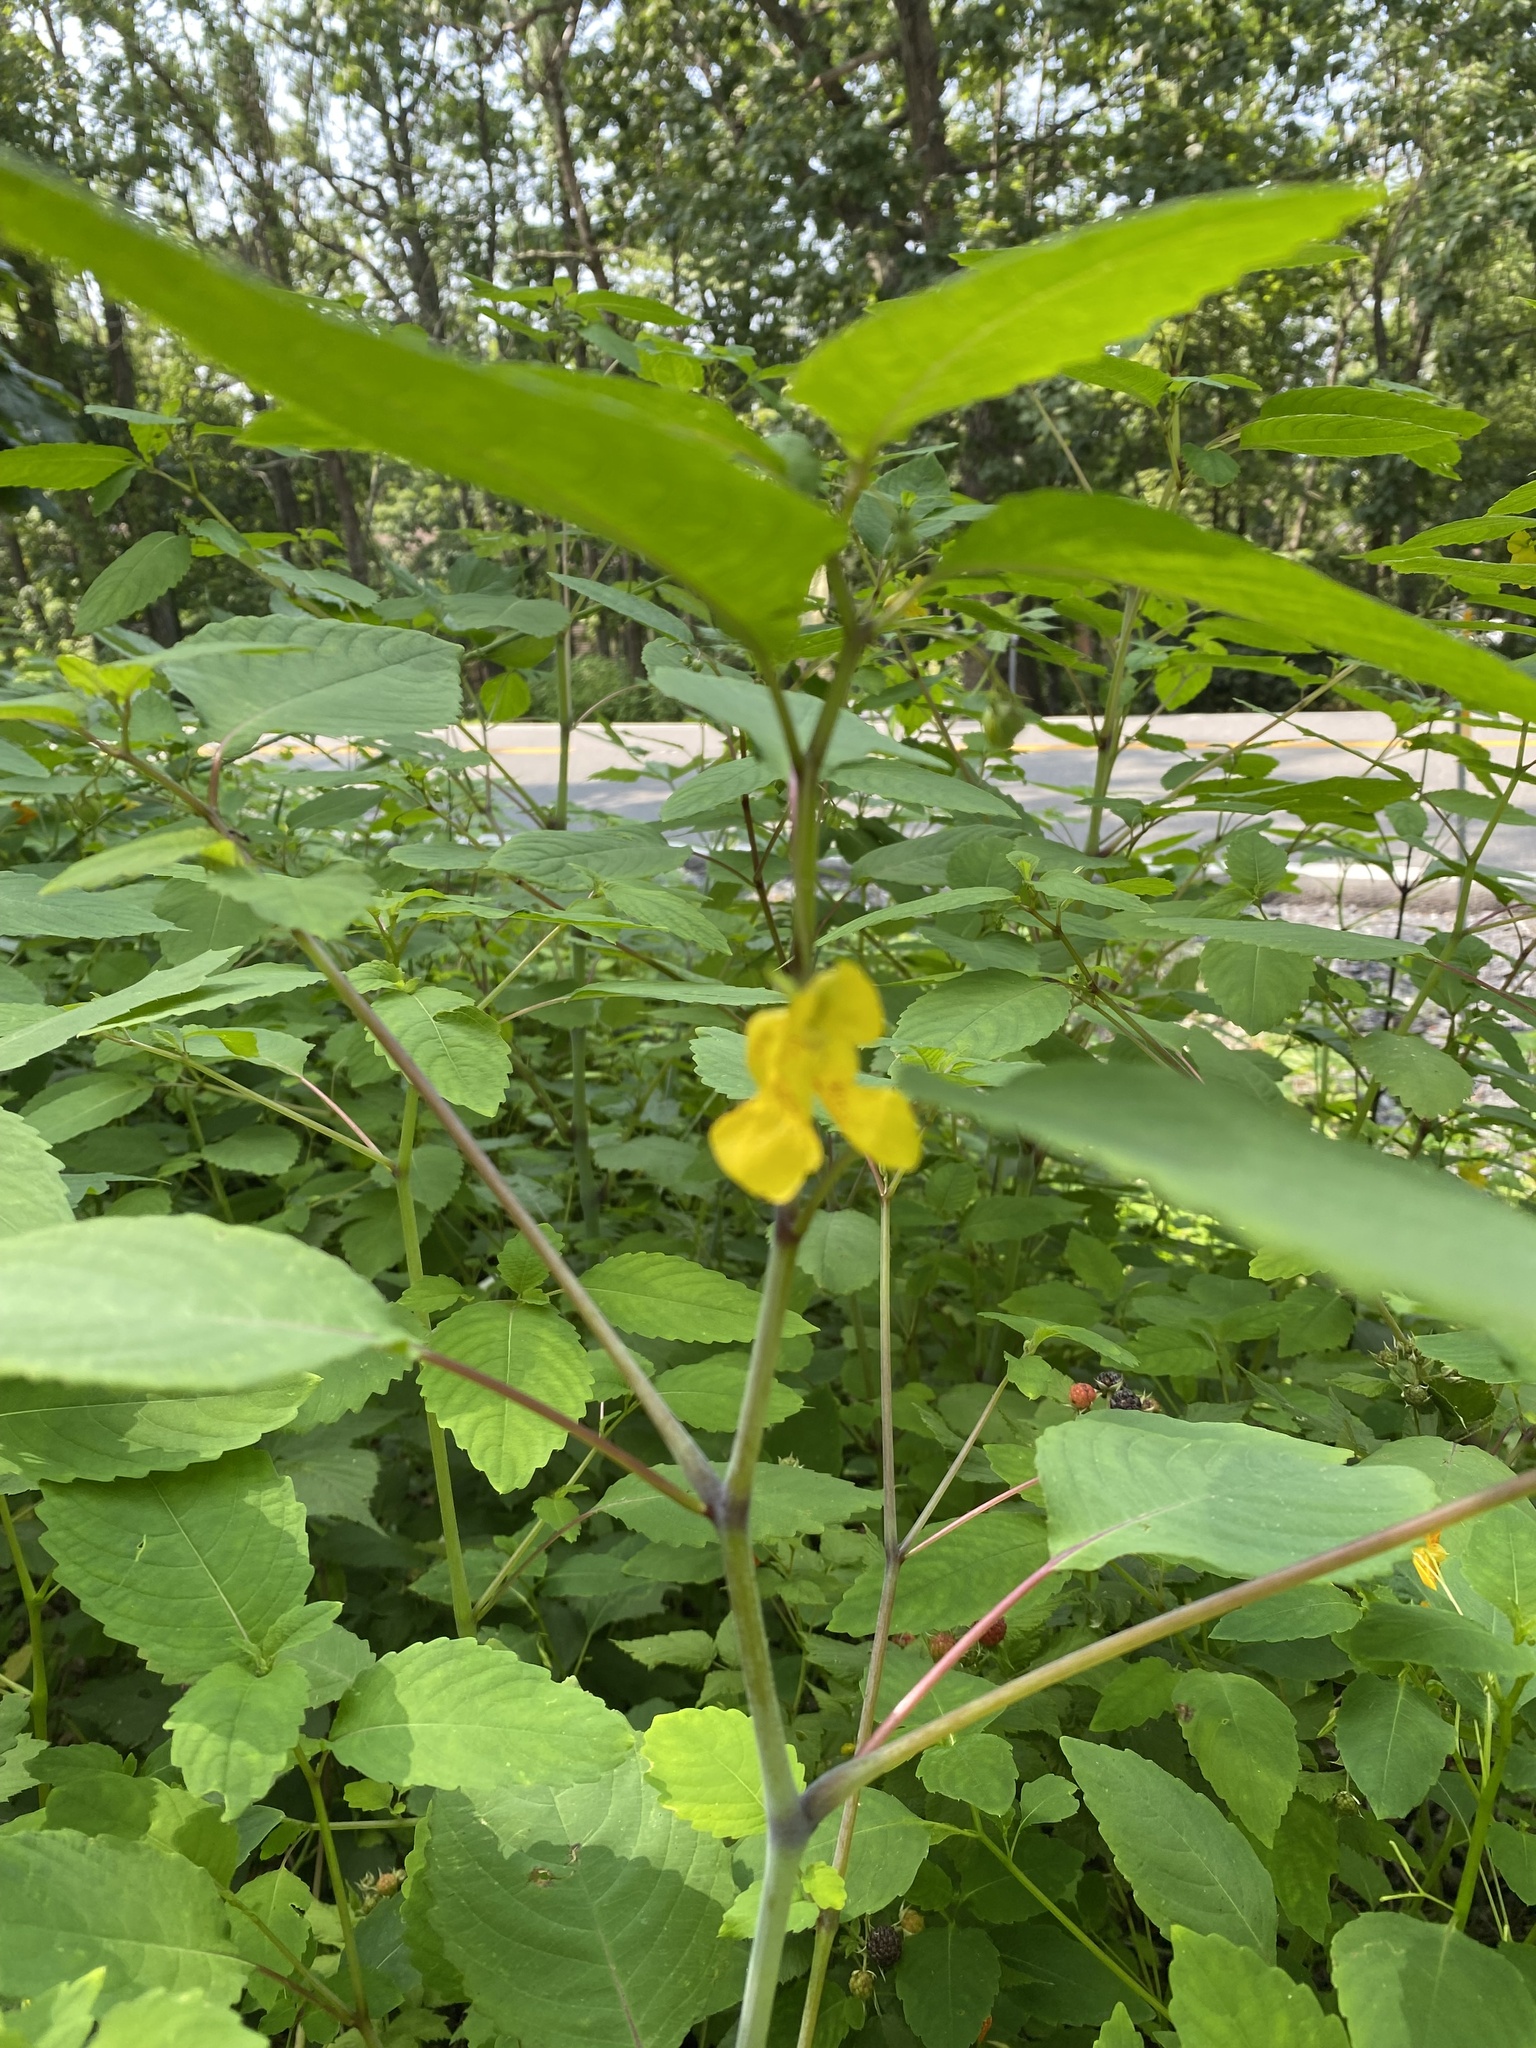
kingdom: Plantae
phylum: Tracheophyta
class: Magnoliopsida
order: Ericales
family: Balsaminaceae
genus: Impatiens
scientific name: Impatiens pallida
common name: Pale snapweed
